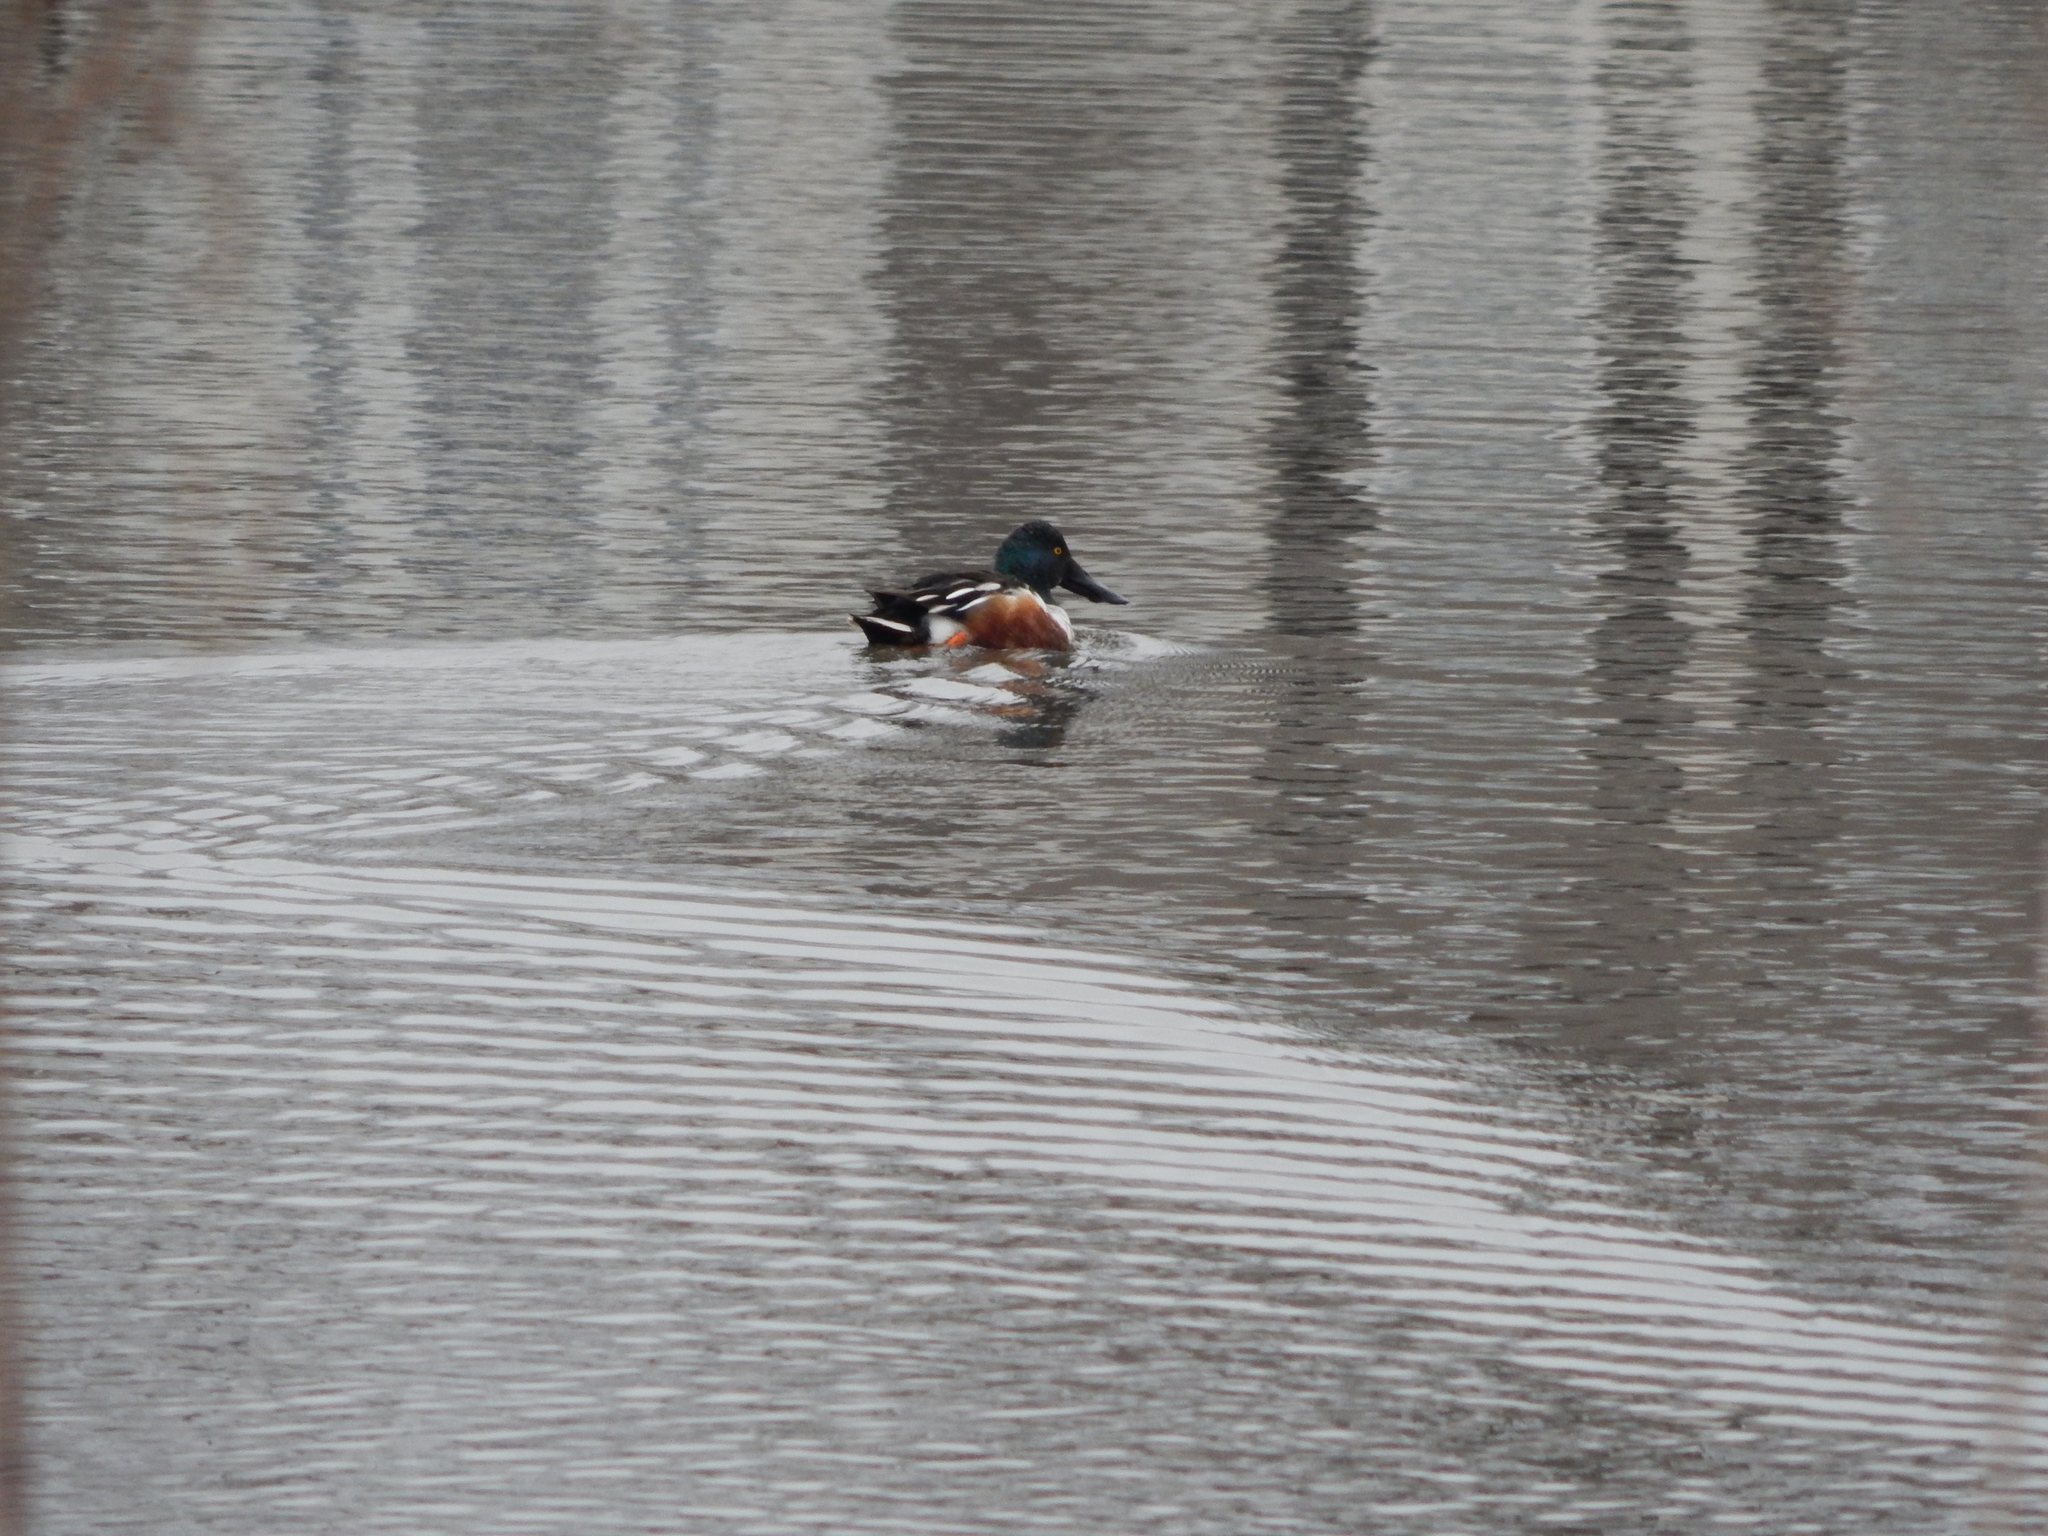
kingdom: Animalia
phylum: Chordata
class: Aves
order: Anseriformes
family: Anatidae
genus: Spatula
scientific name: Spatula clypeata
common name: Northern shoveler
